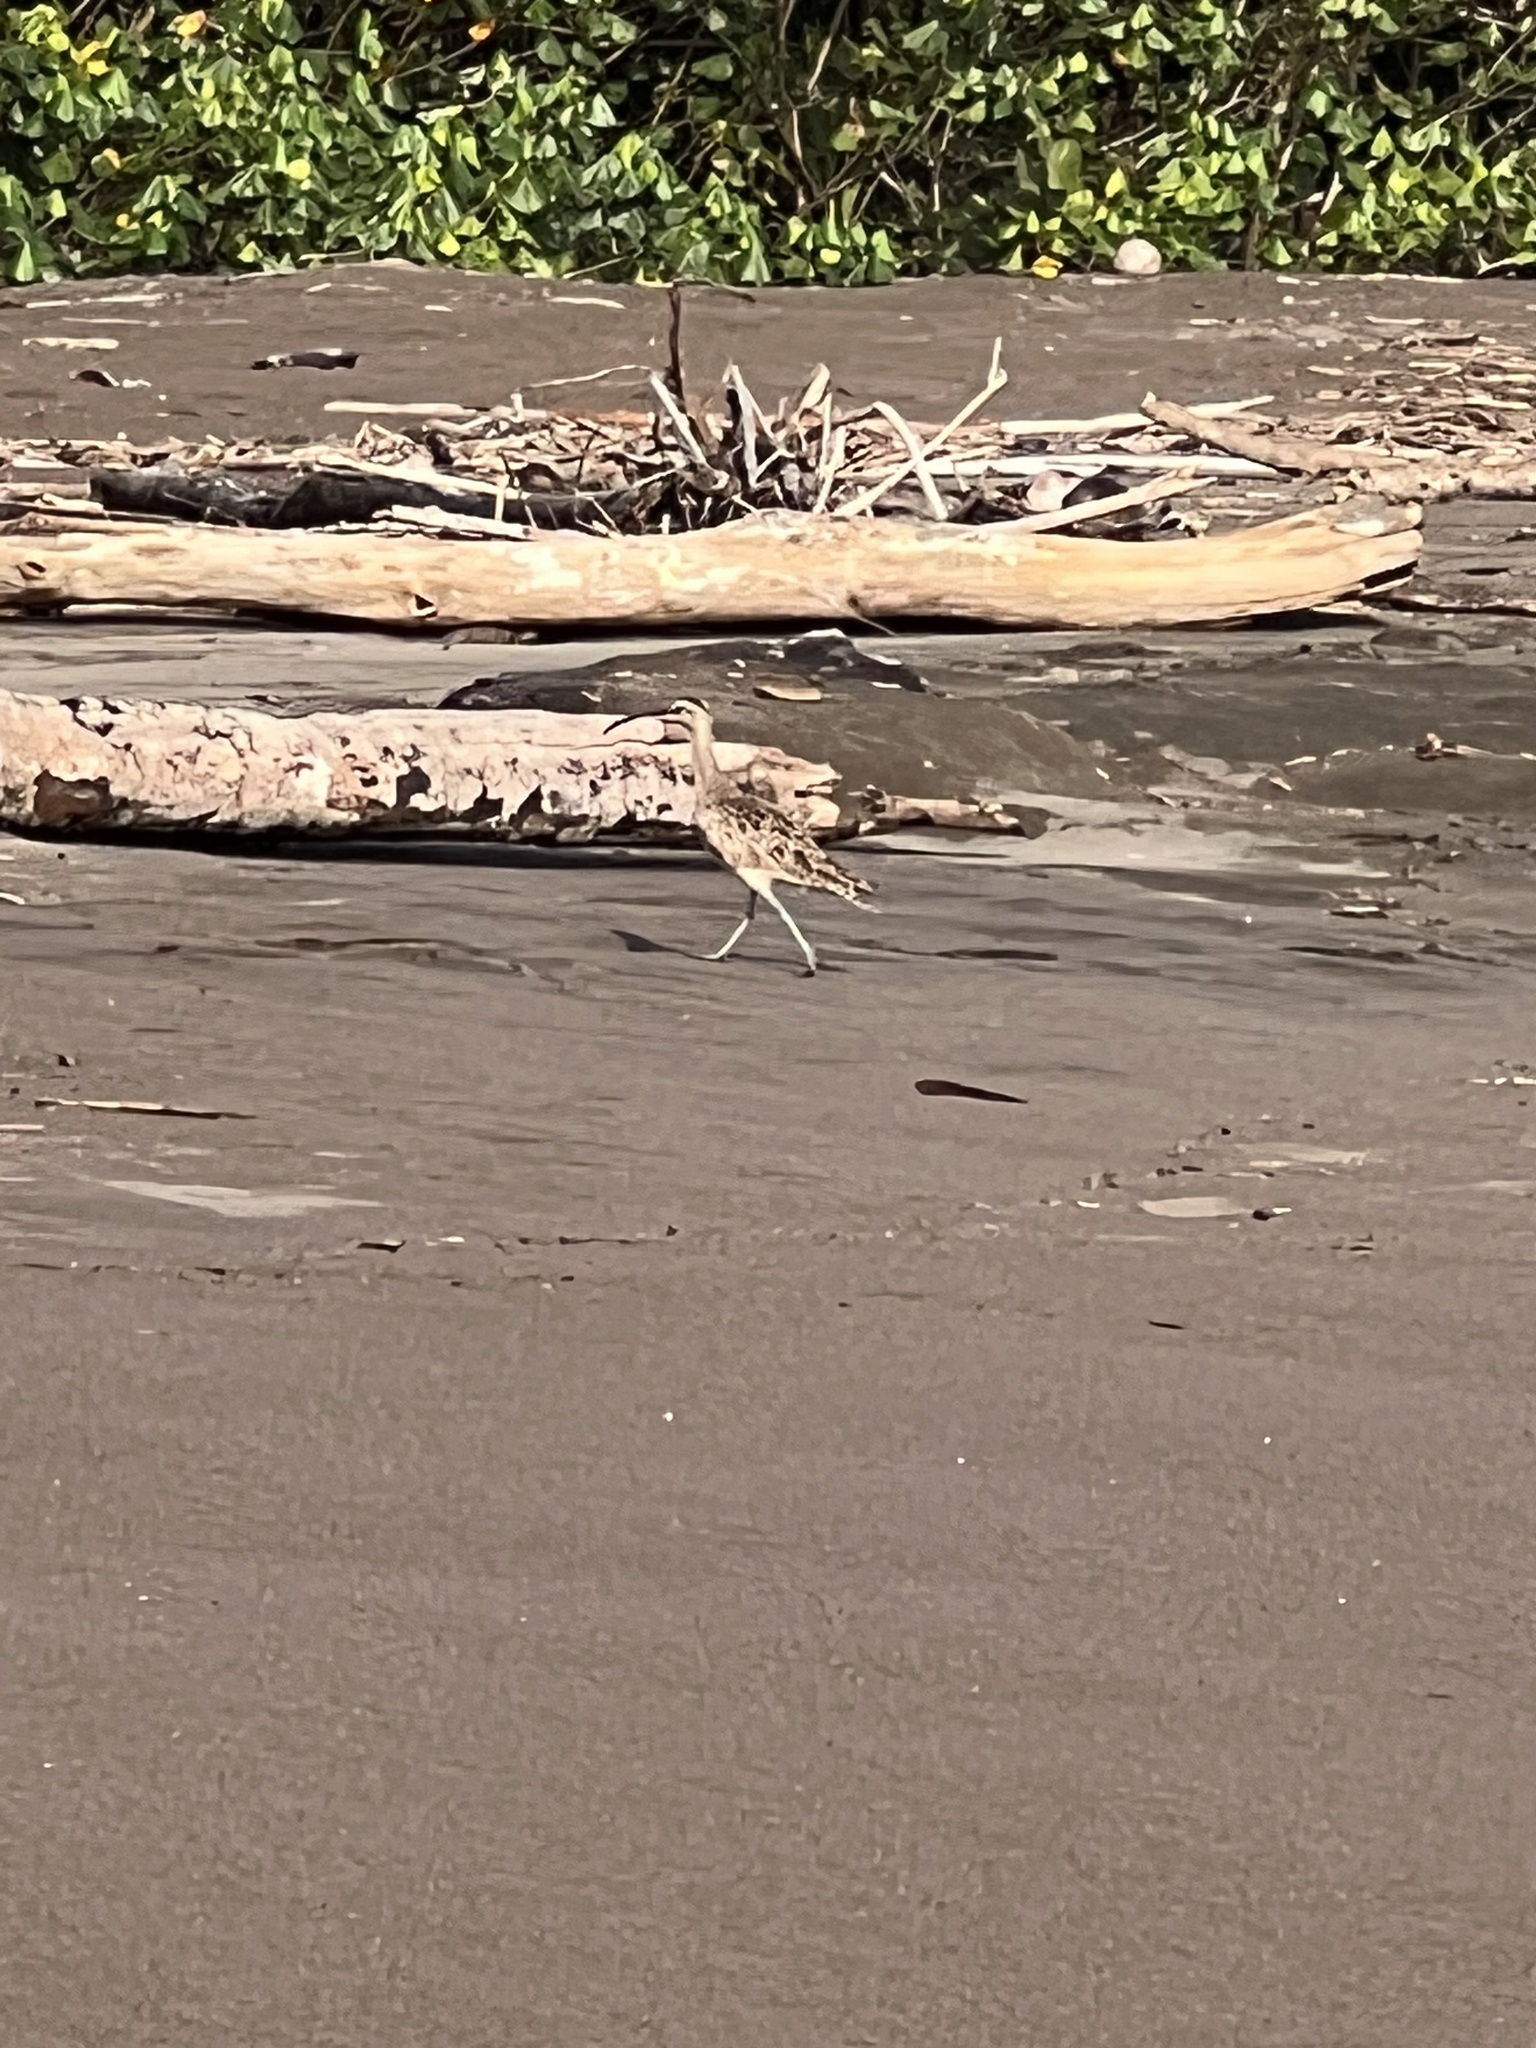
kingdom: Animalia
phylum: Chordata
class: Aves
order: Charadriiformes
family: Scolopacidae
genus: Numenius
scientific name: Numenius phaeopus
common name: Whimbrel
